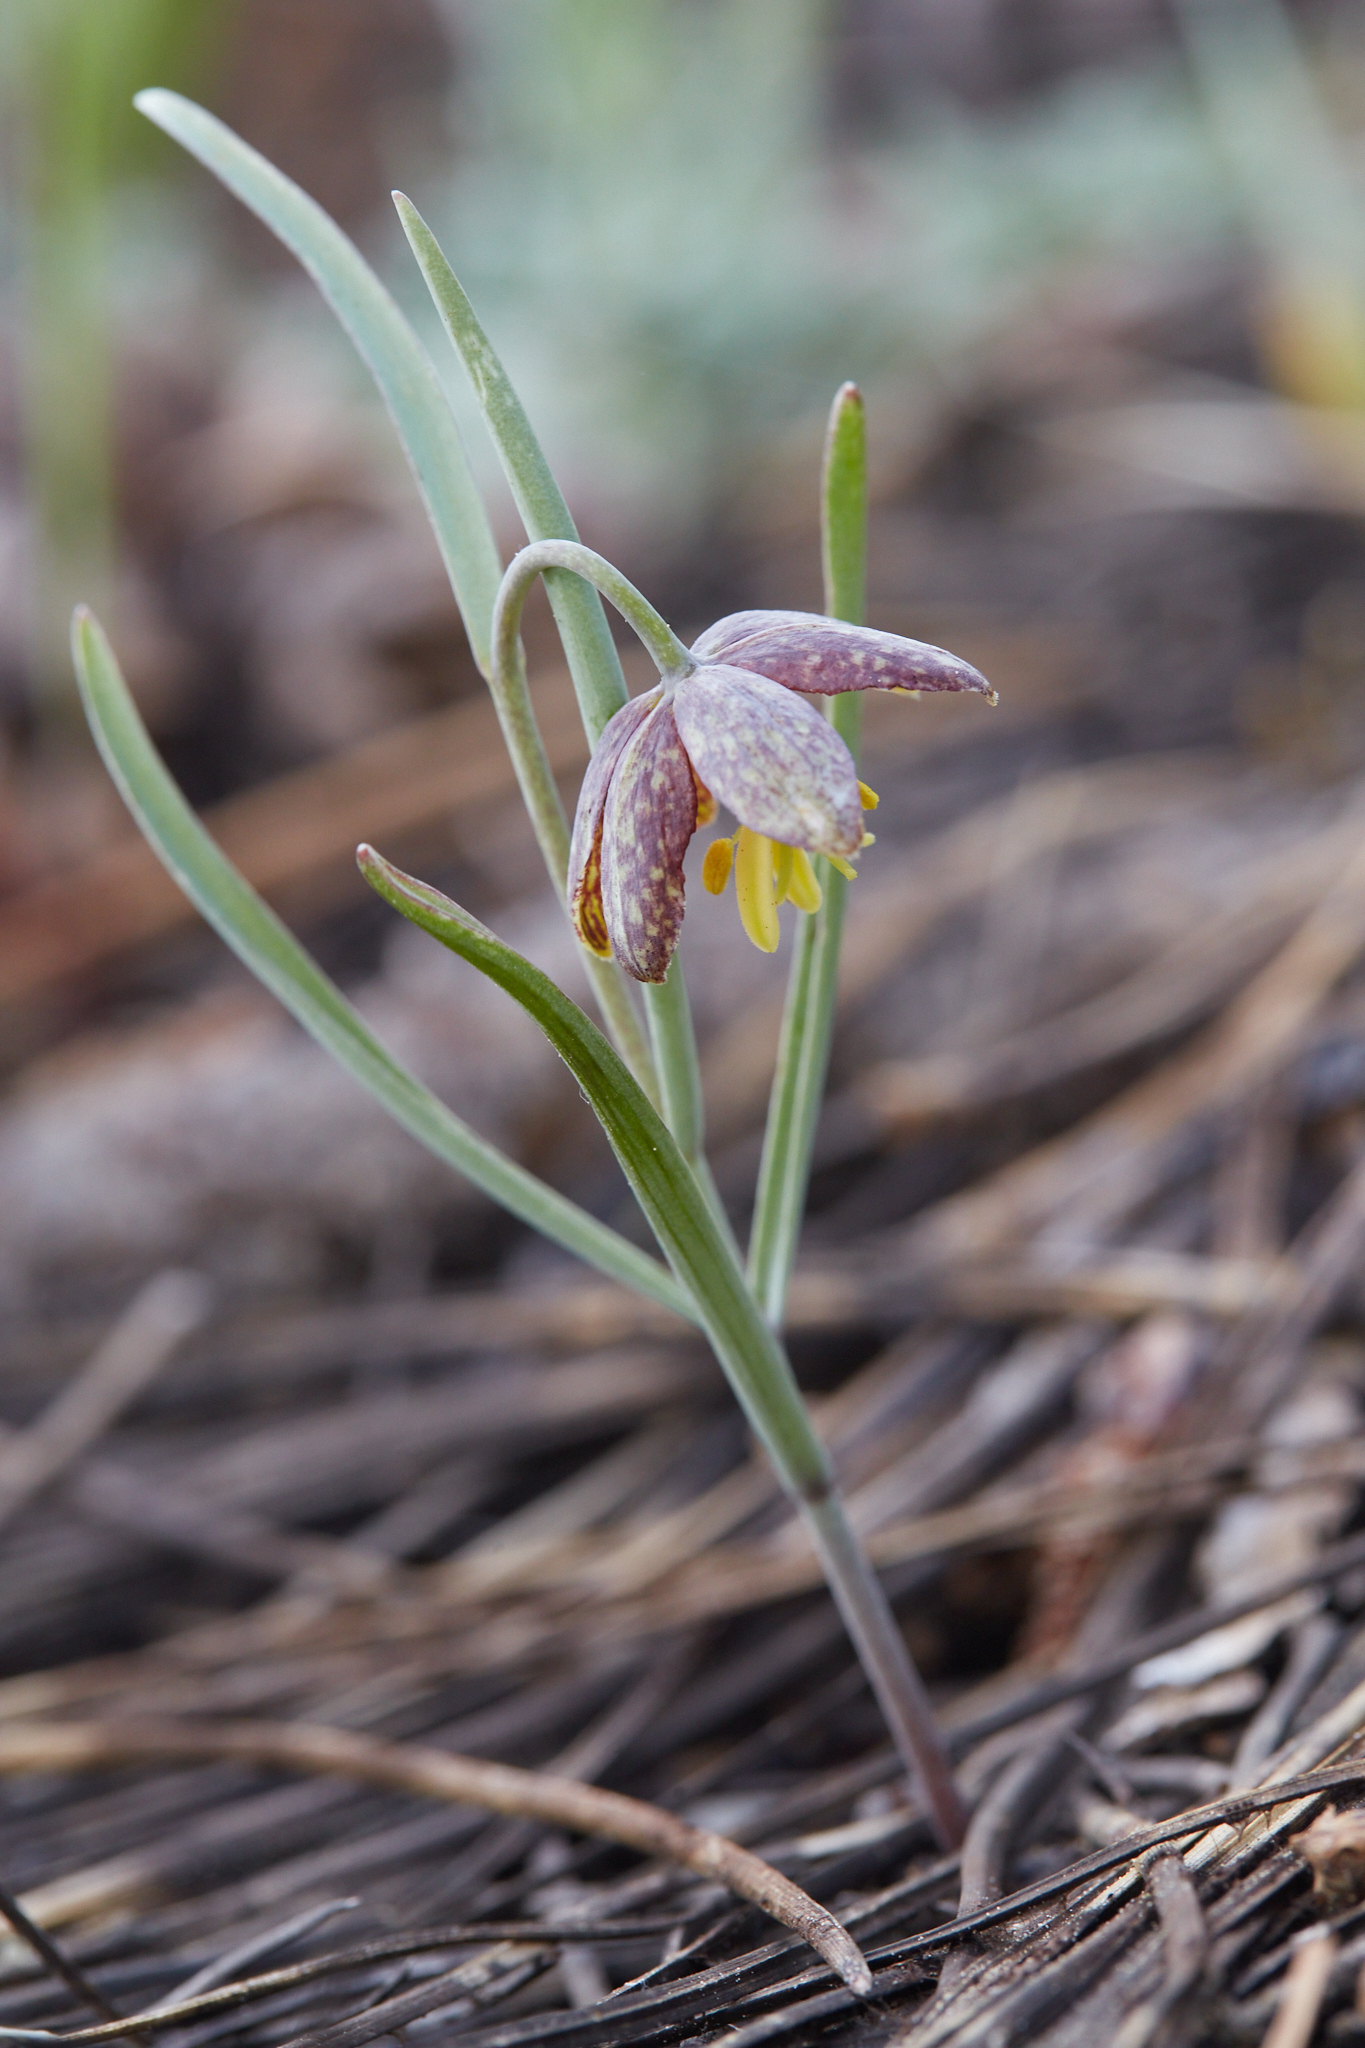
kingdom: Plantae
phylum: Tracheophyta
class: Liliopsida
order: Liliales
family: Liliaceae
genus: Fritillaria
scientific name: Fritillaria atropurpurea
